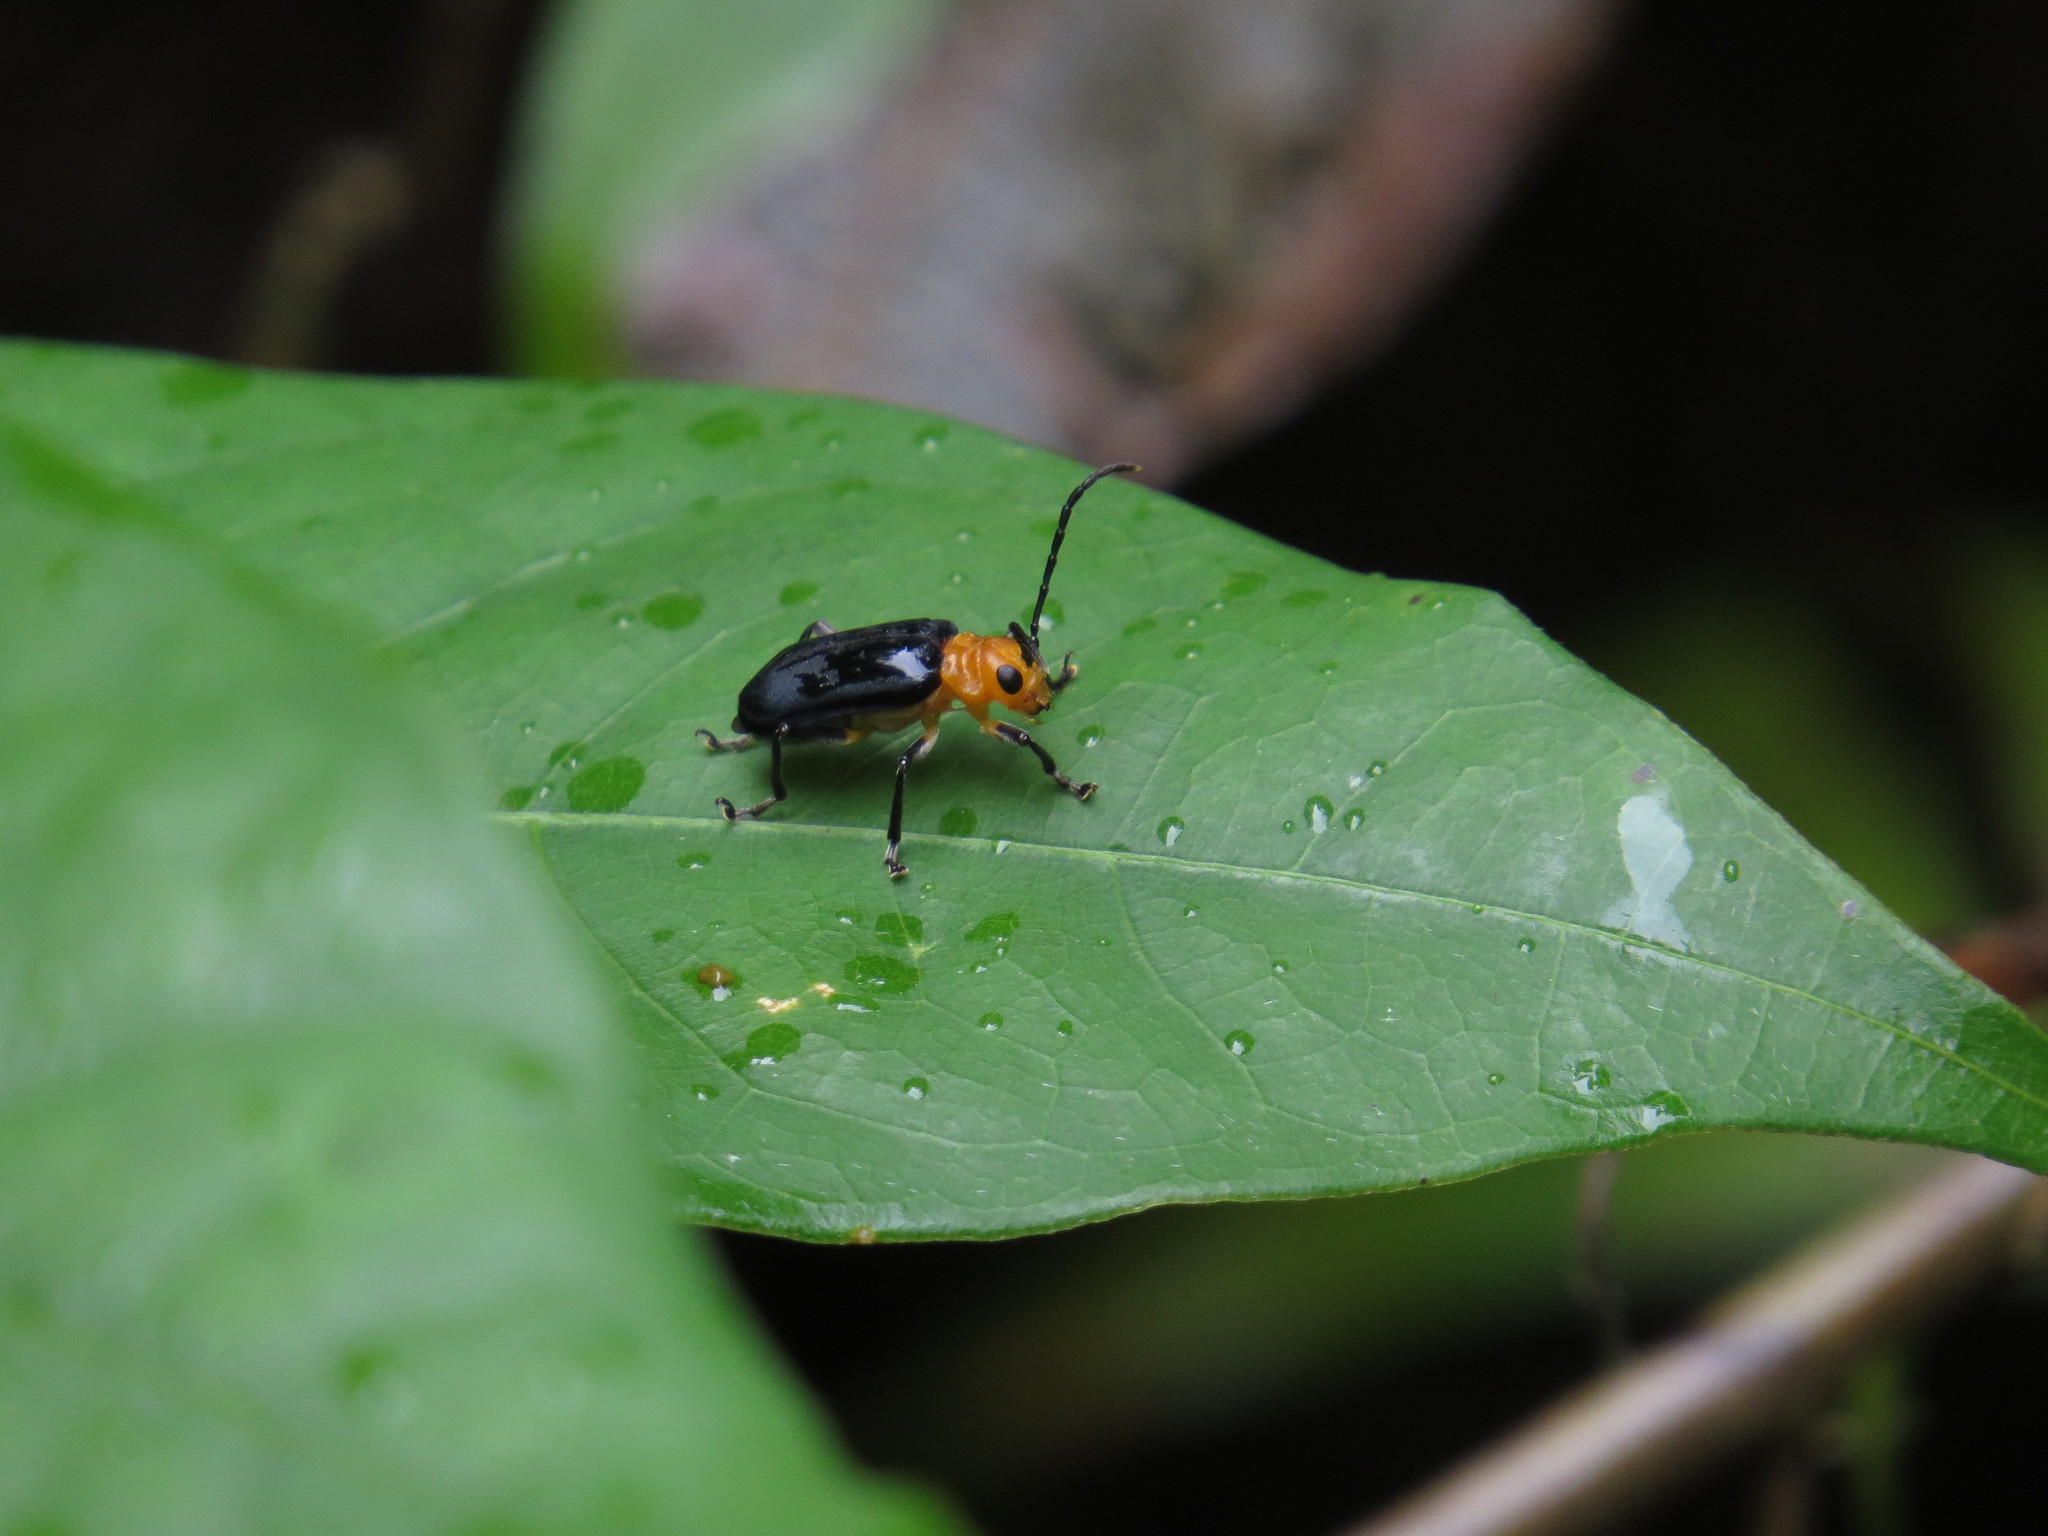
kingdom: Animalia
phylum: Arthropoda
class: Insecta
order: Coleoptera
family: Chrysomelidae
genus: Dircema
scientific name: Dircema ruficrus
